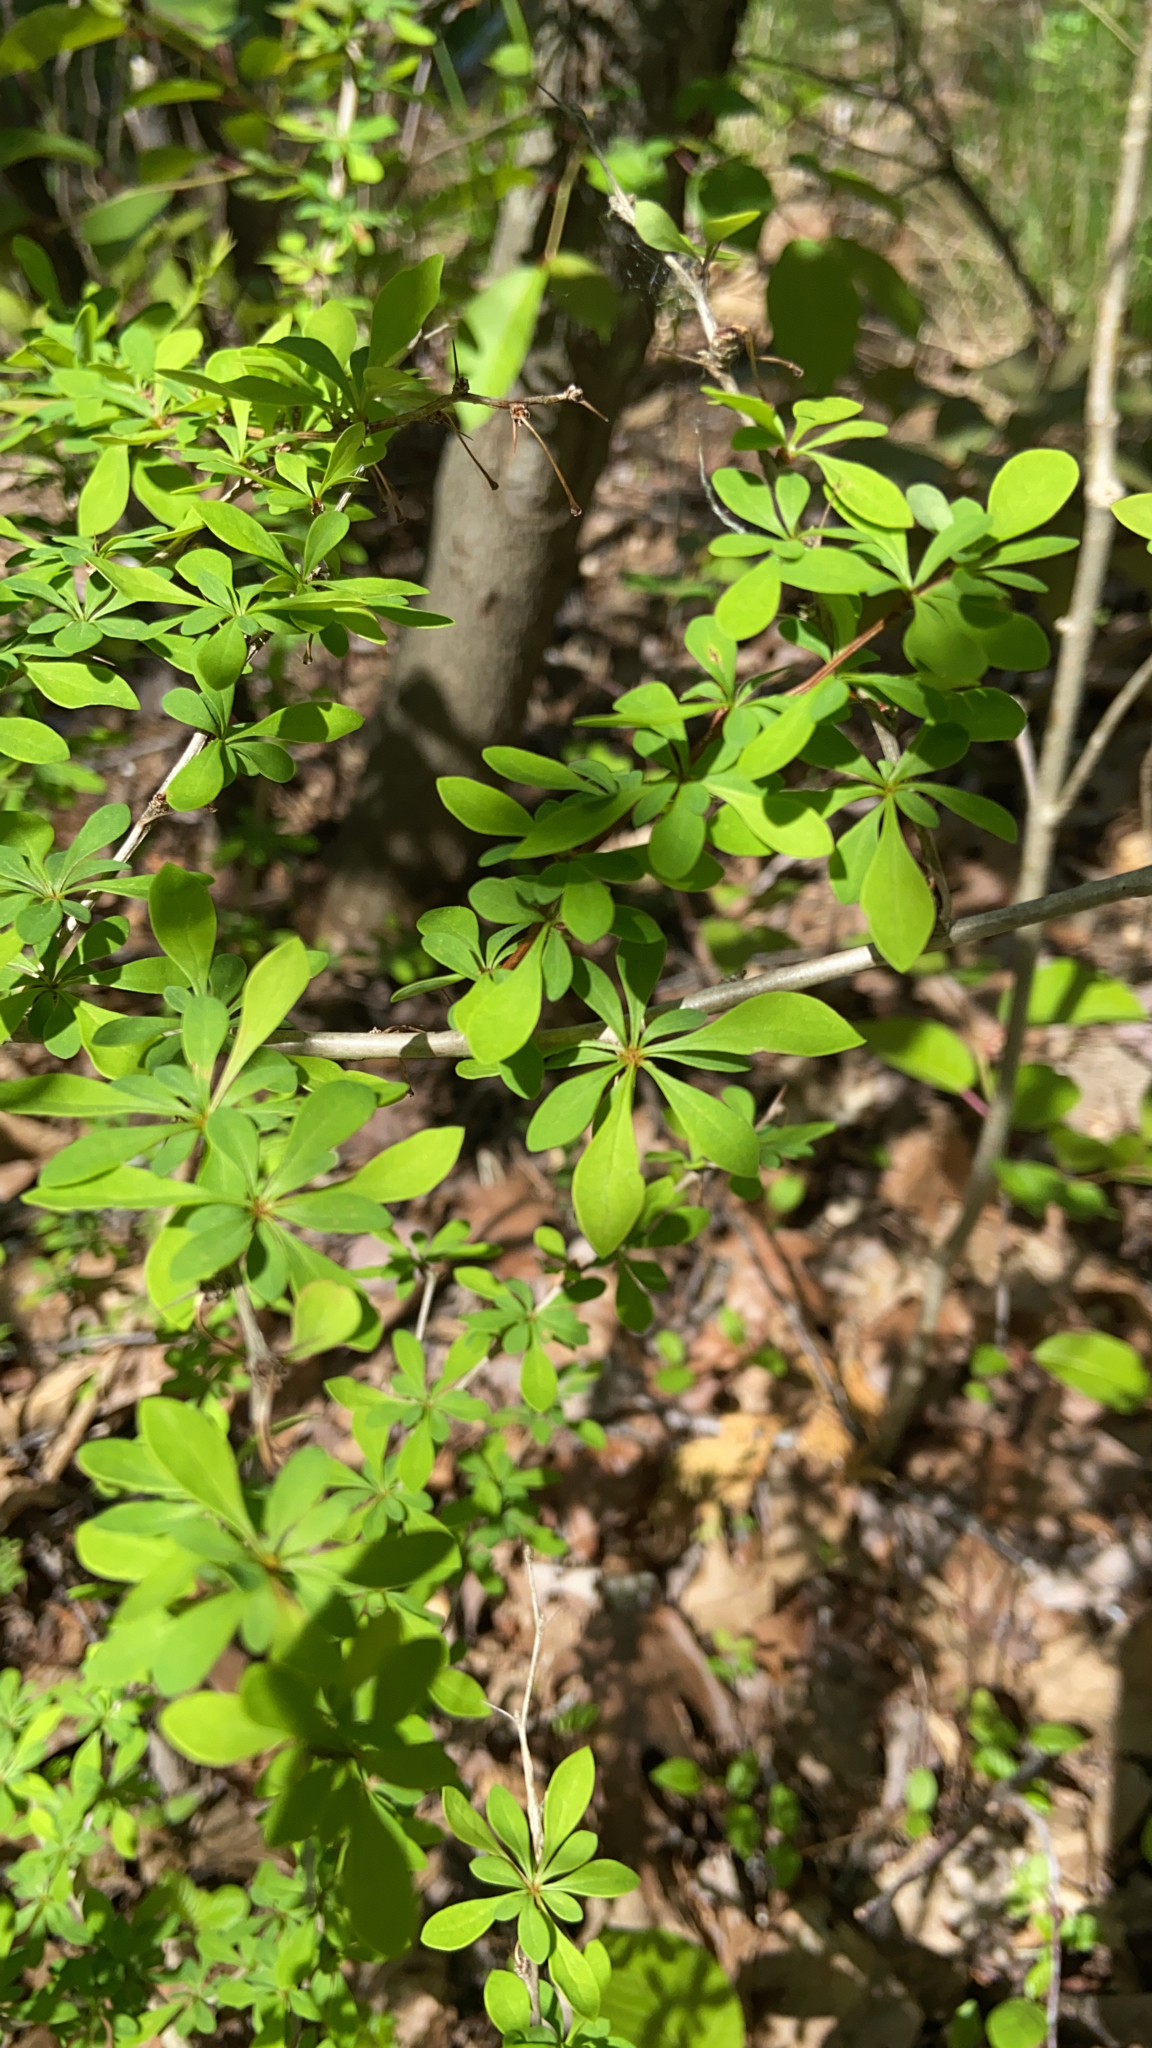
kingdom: Plantae
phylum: Tracheophyta
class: Magnoliopsida
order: Ranunculales
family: Berberidaceae
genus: Berberis
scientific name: Berberis thunbergii
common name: Japanese barberry
